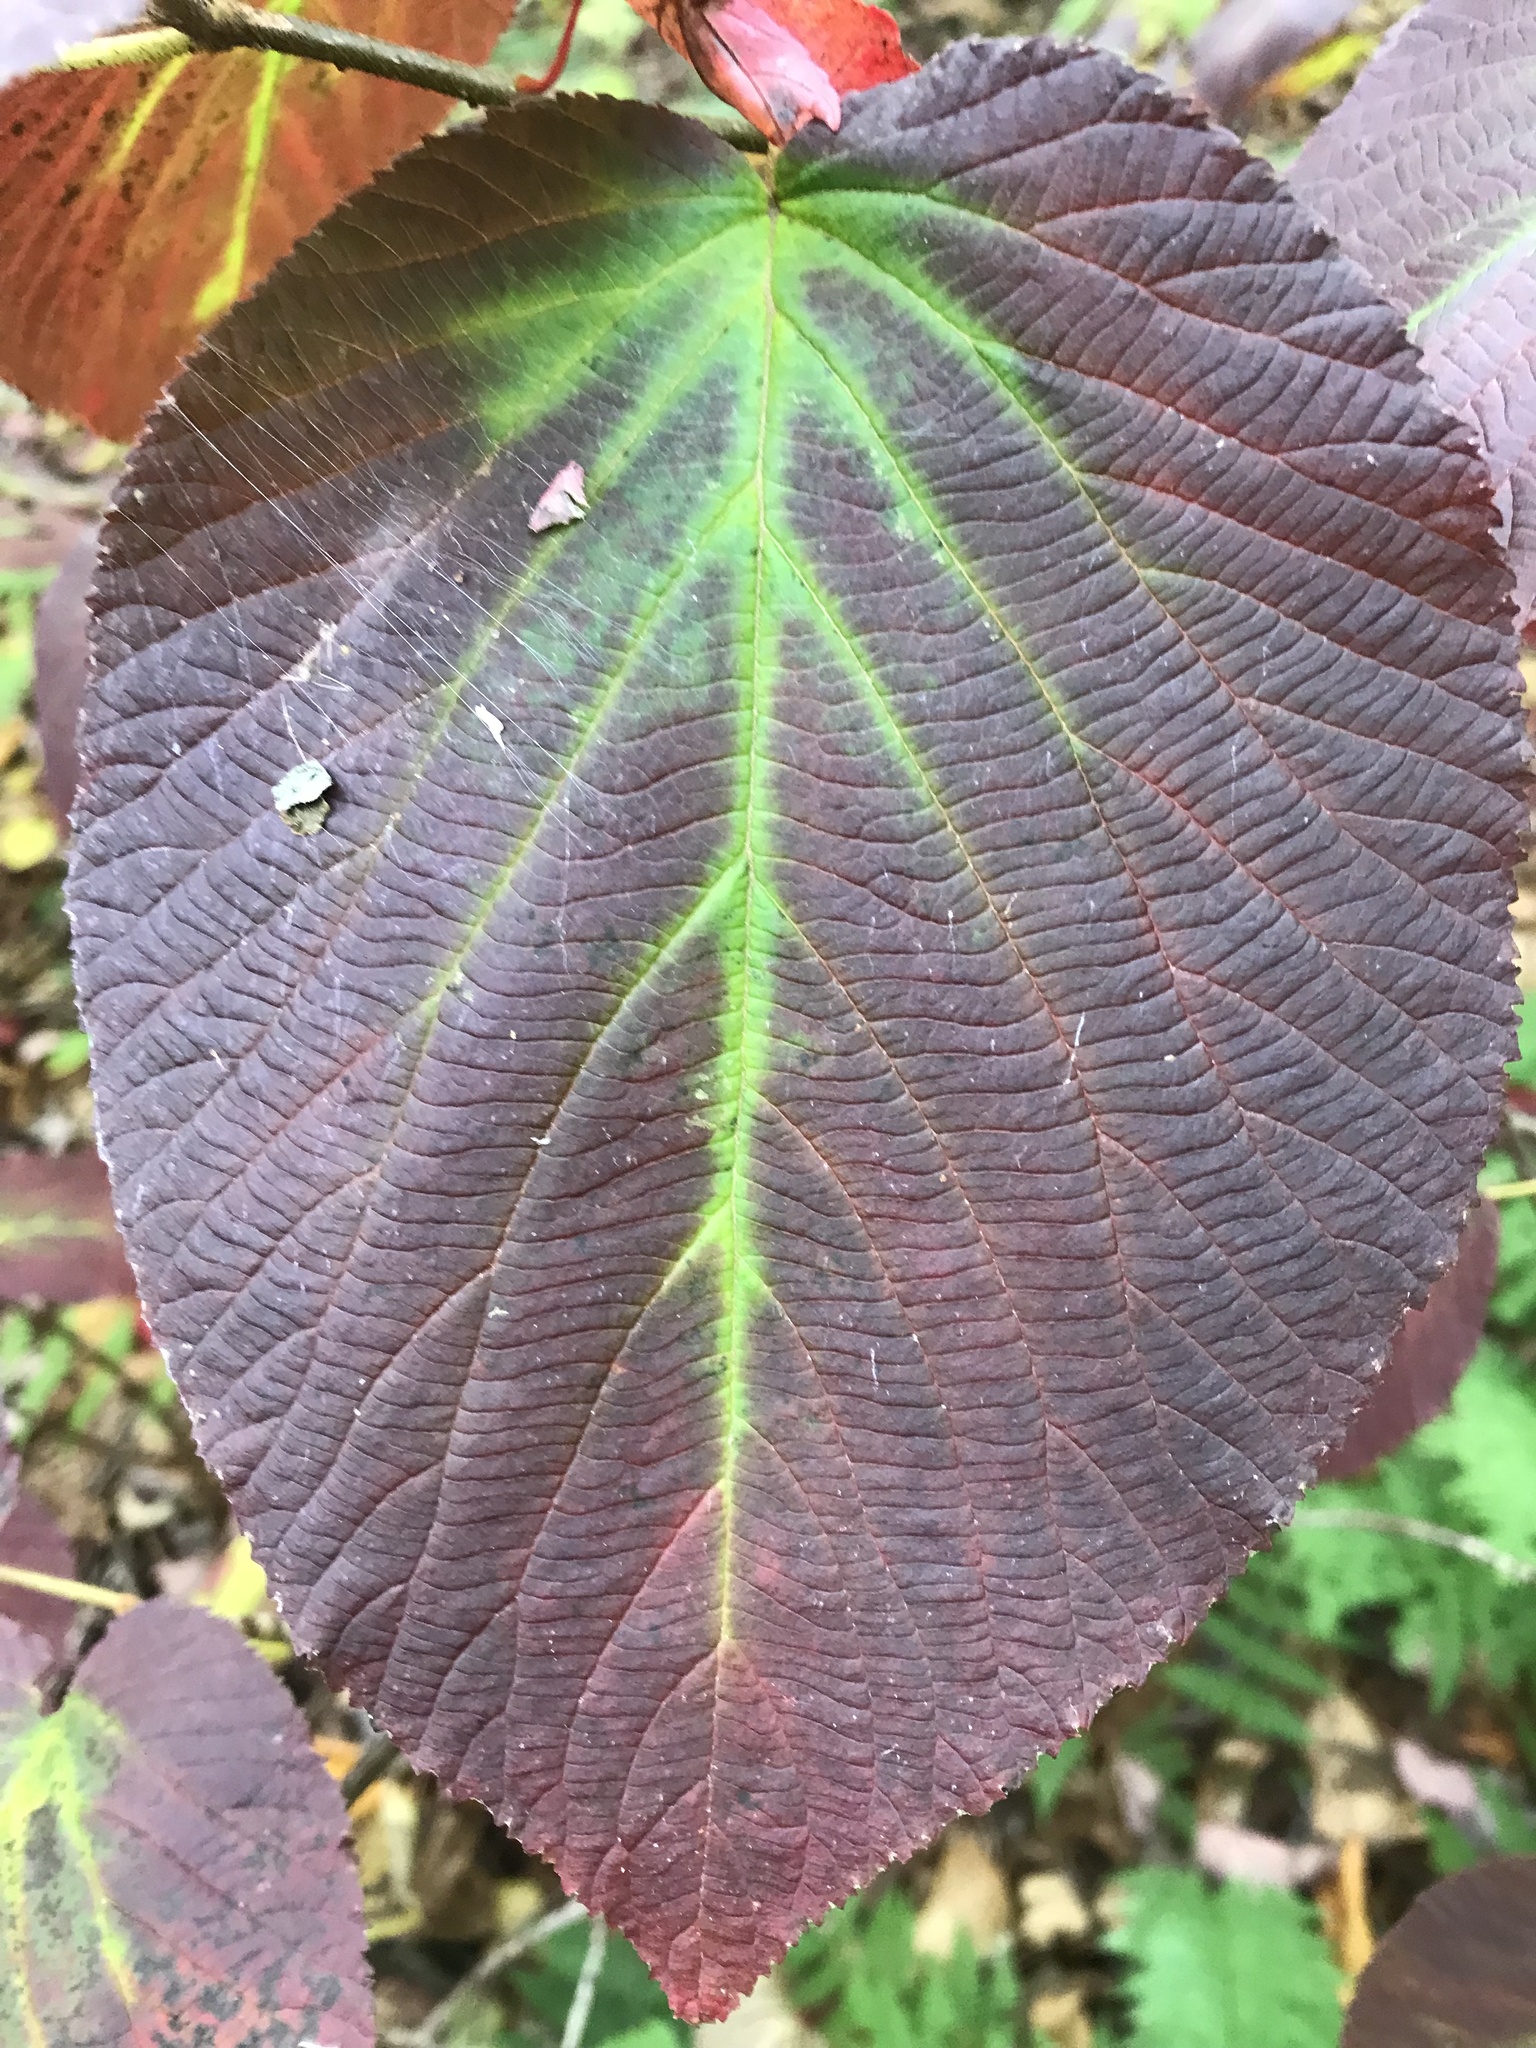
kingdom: Plantae
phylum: Tracheophyta
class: Magnoliopsida
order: Dipsacales
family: Viburnaceae
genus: Viburnum
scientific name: Viburnum lantanoides
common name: Hobblebush
